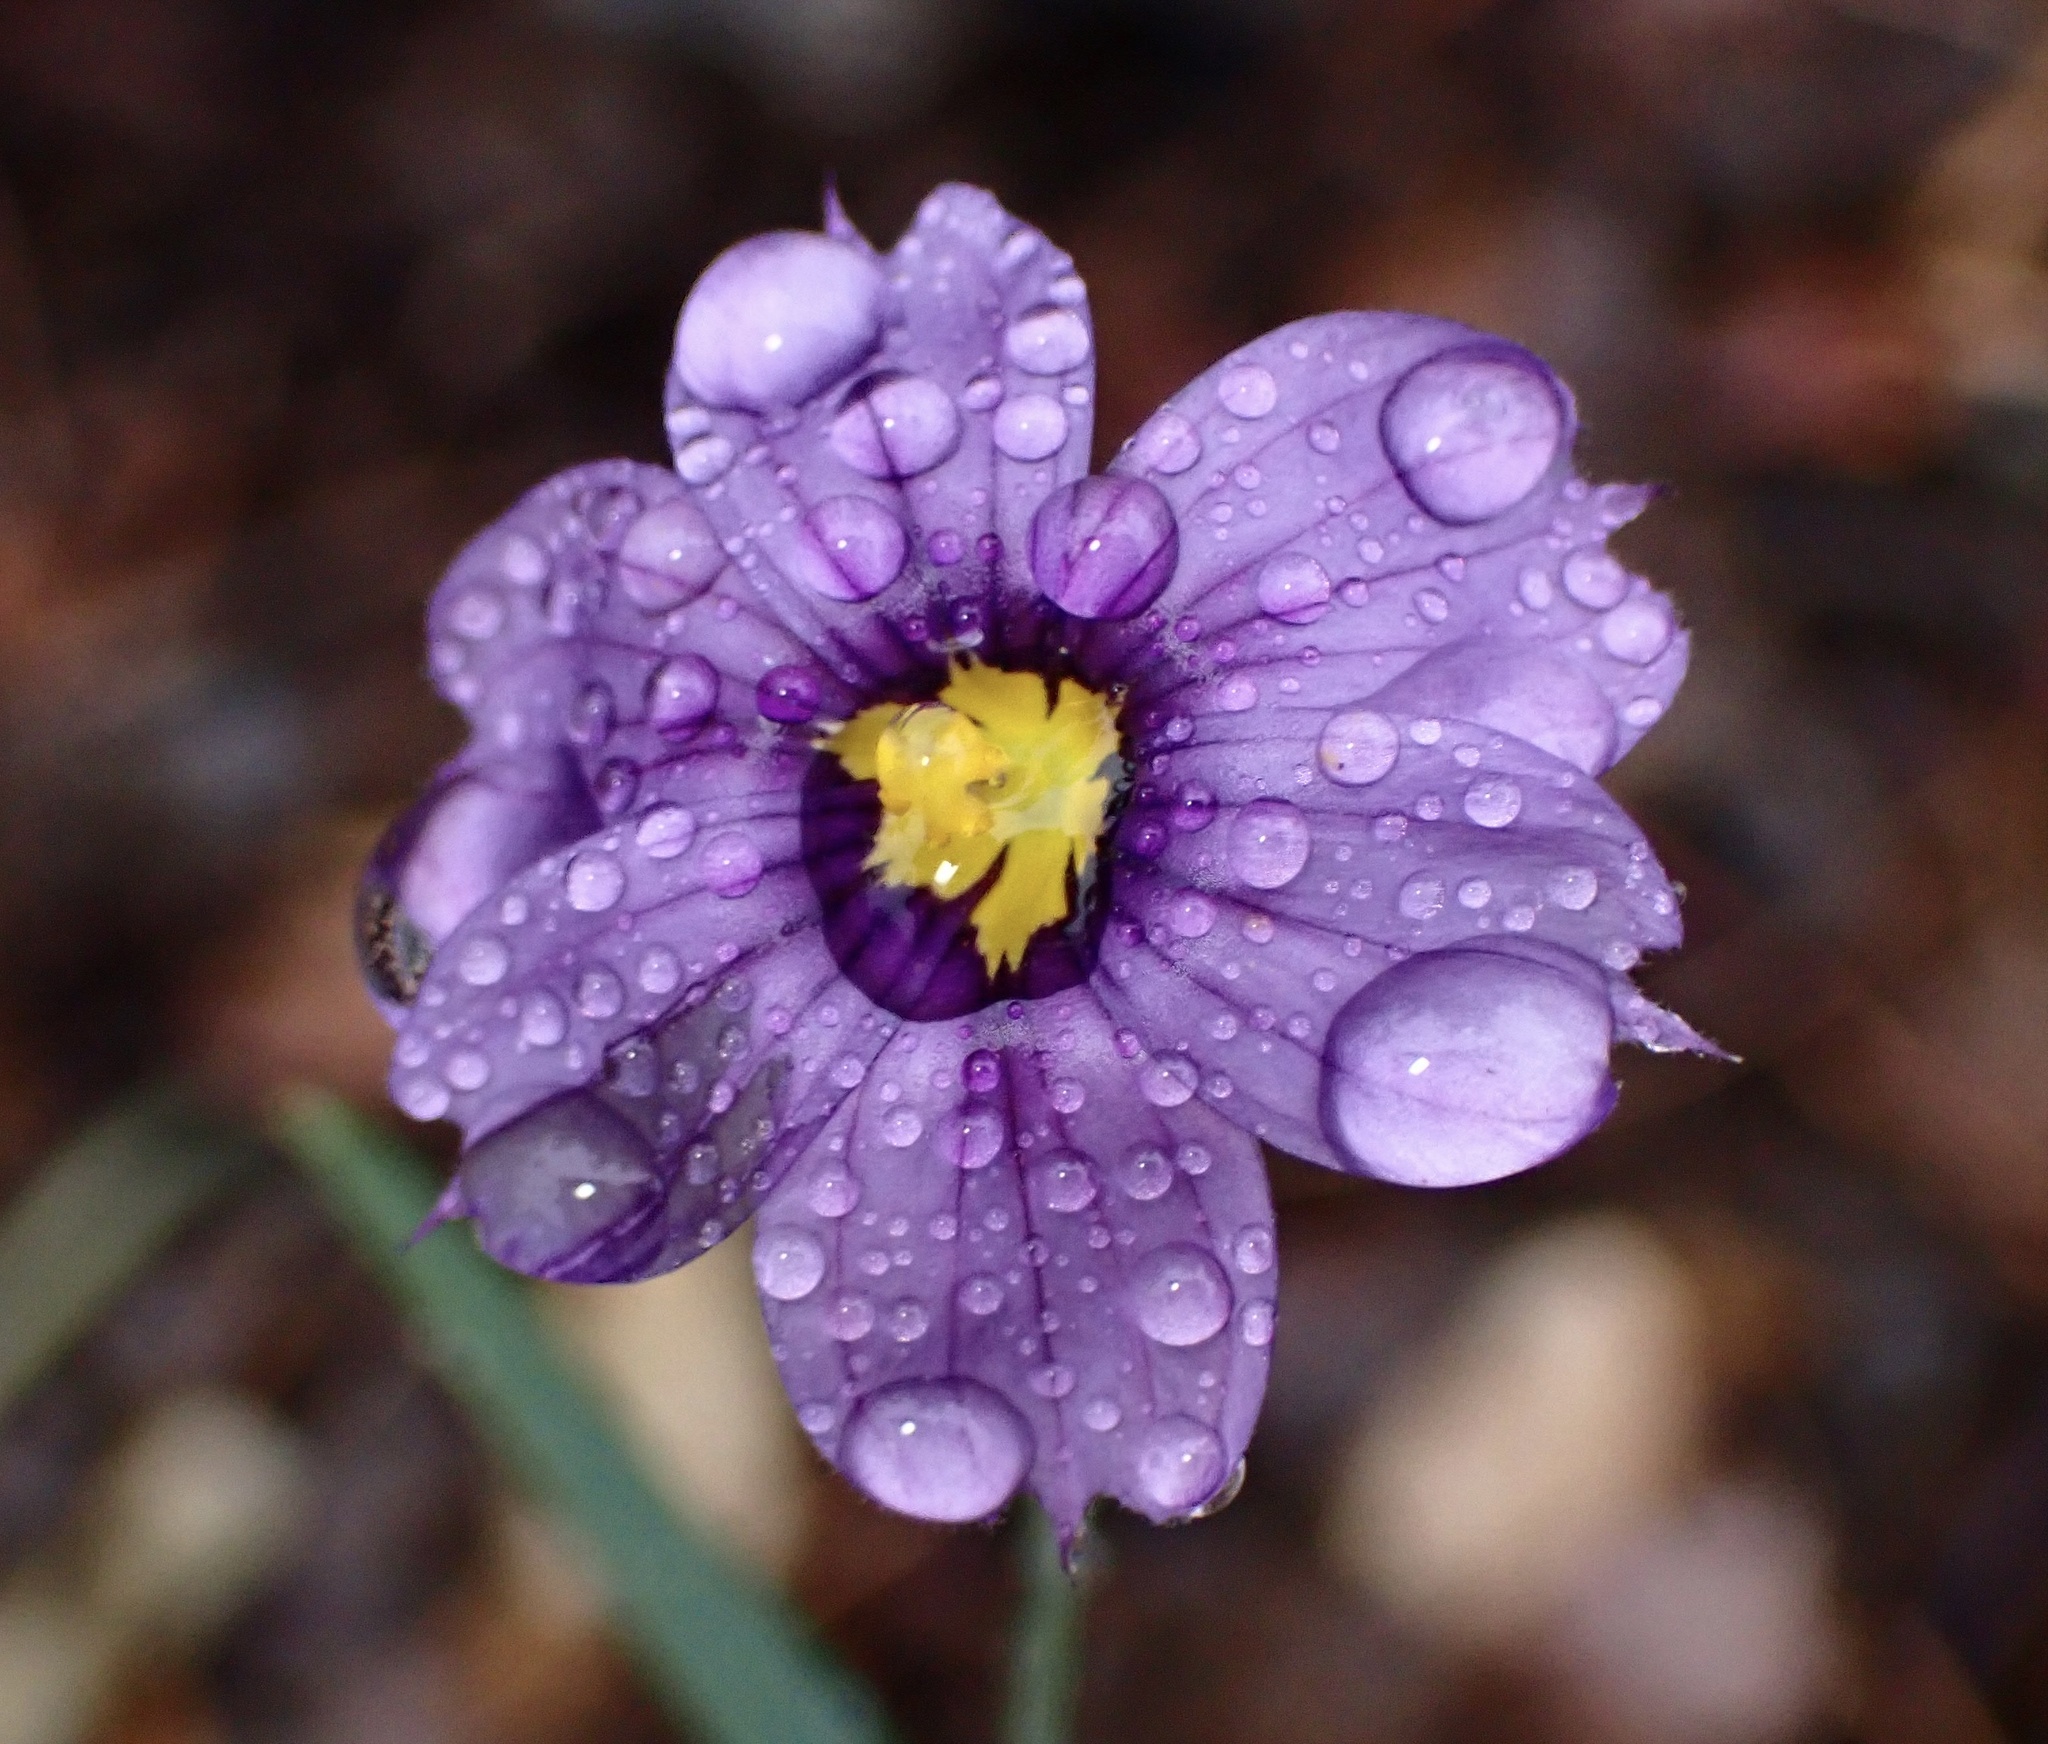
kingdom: Plantae
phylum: Tracheophyta
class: Liliopsida
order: Asparagales
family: Iridaceae
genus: Sisyrinchium
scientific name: Sisyrinchium bellum
